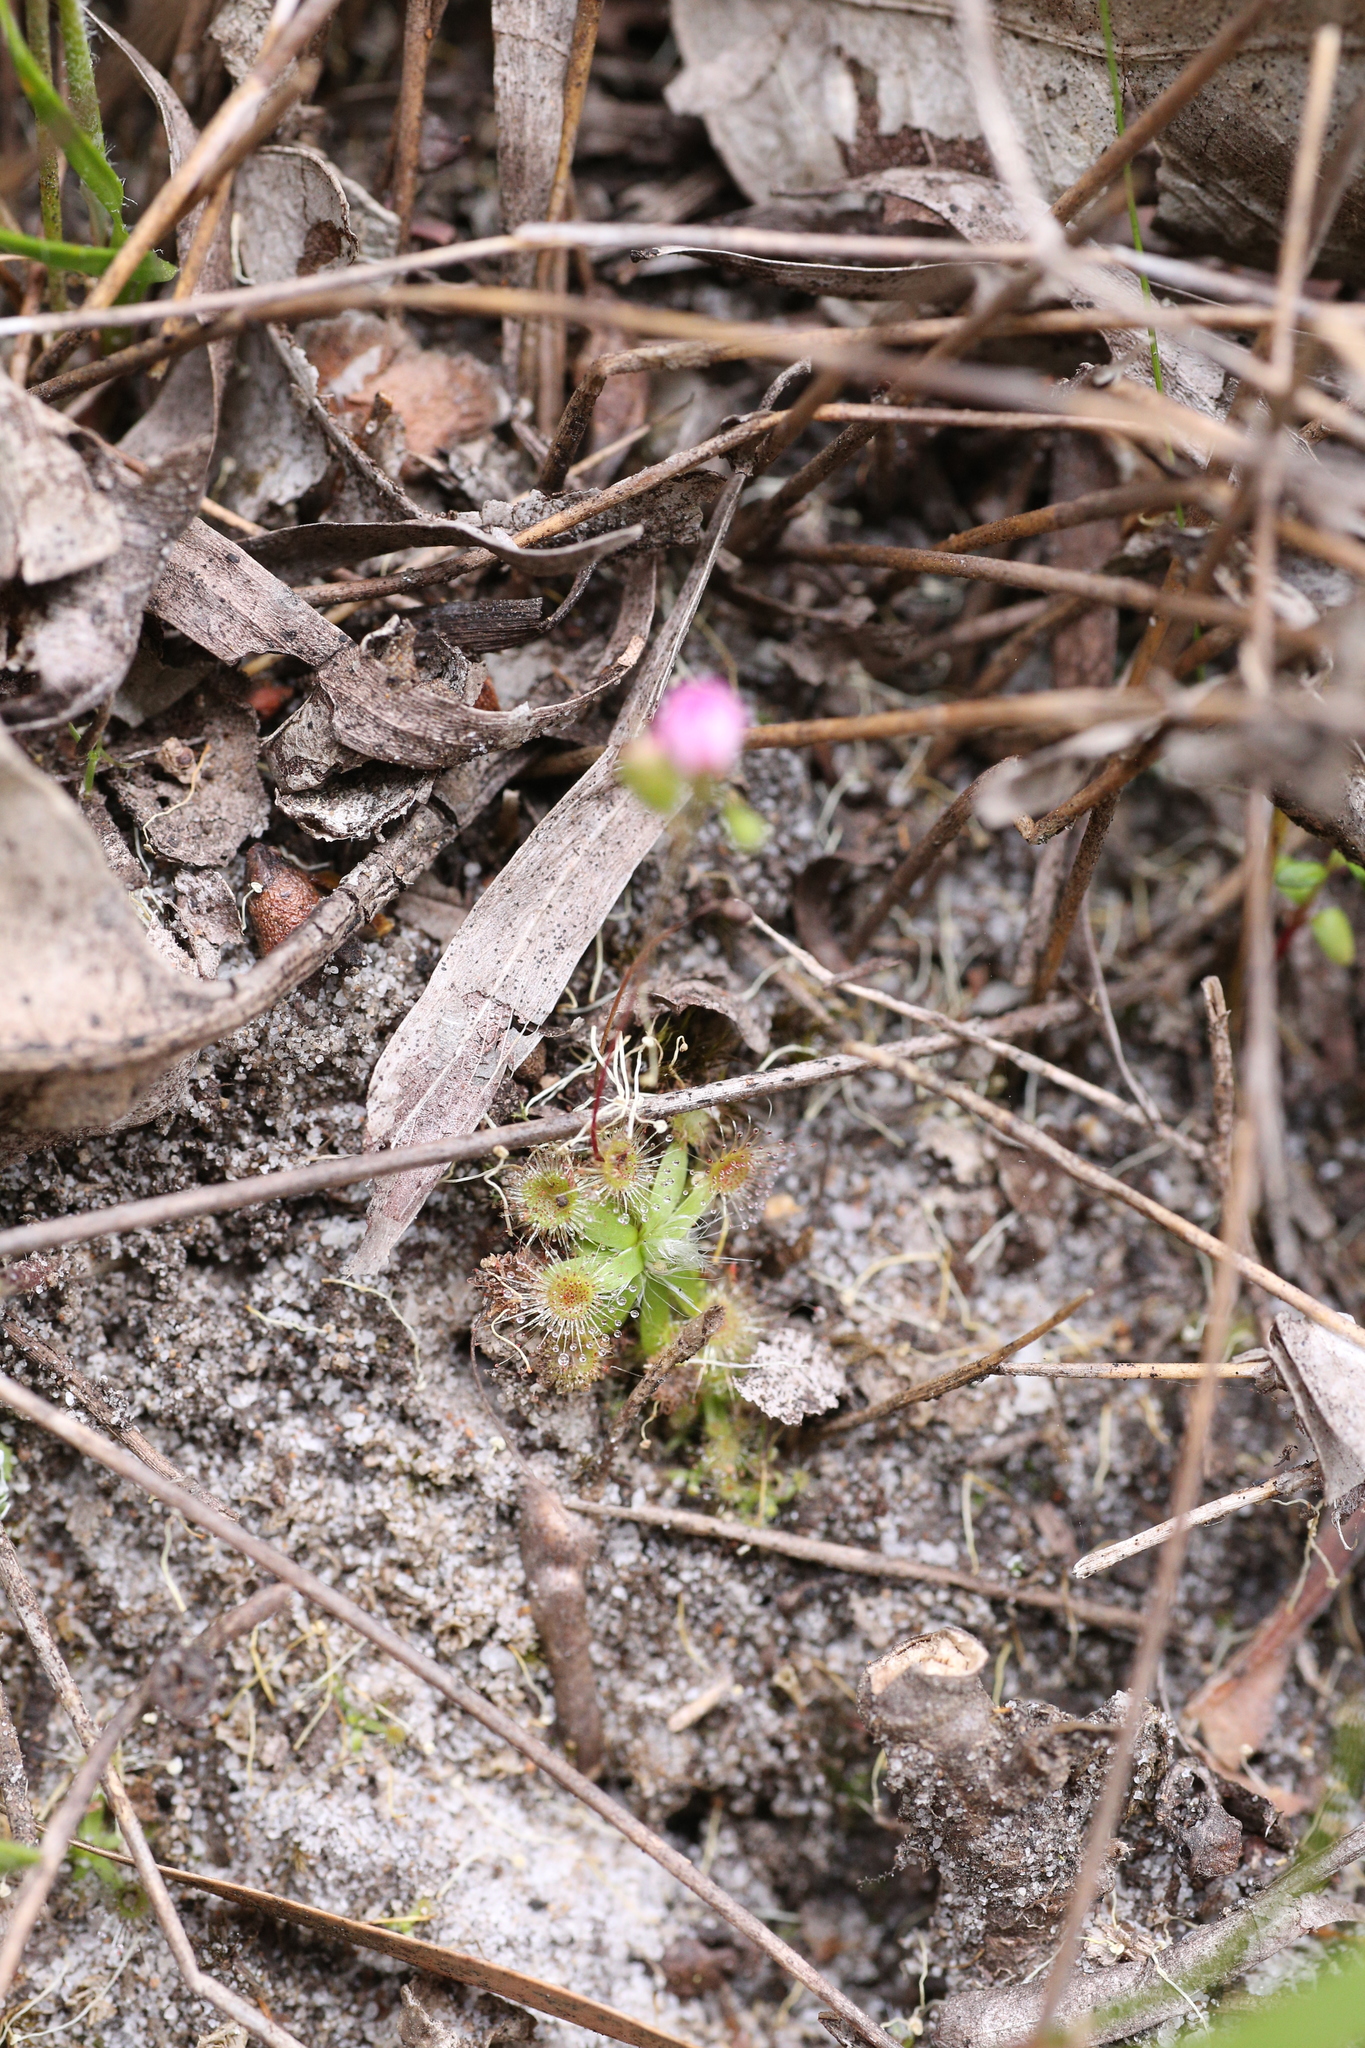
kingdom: Plantae
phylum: Tracheophyta
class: Magnoliopsida
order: Caryophyllales
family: Droseraceae
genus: Drosera
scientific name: Drosera pulchella
